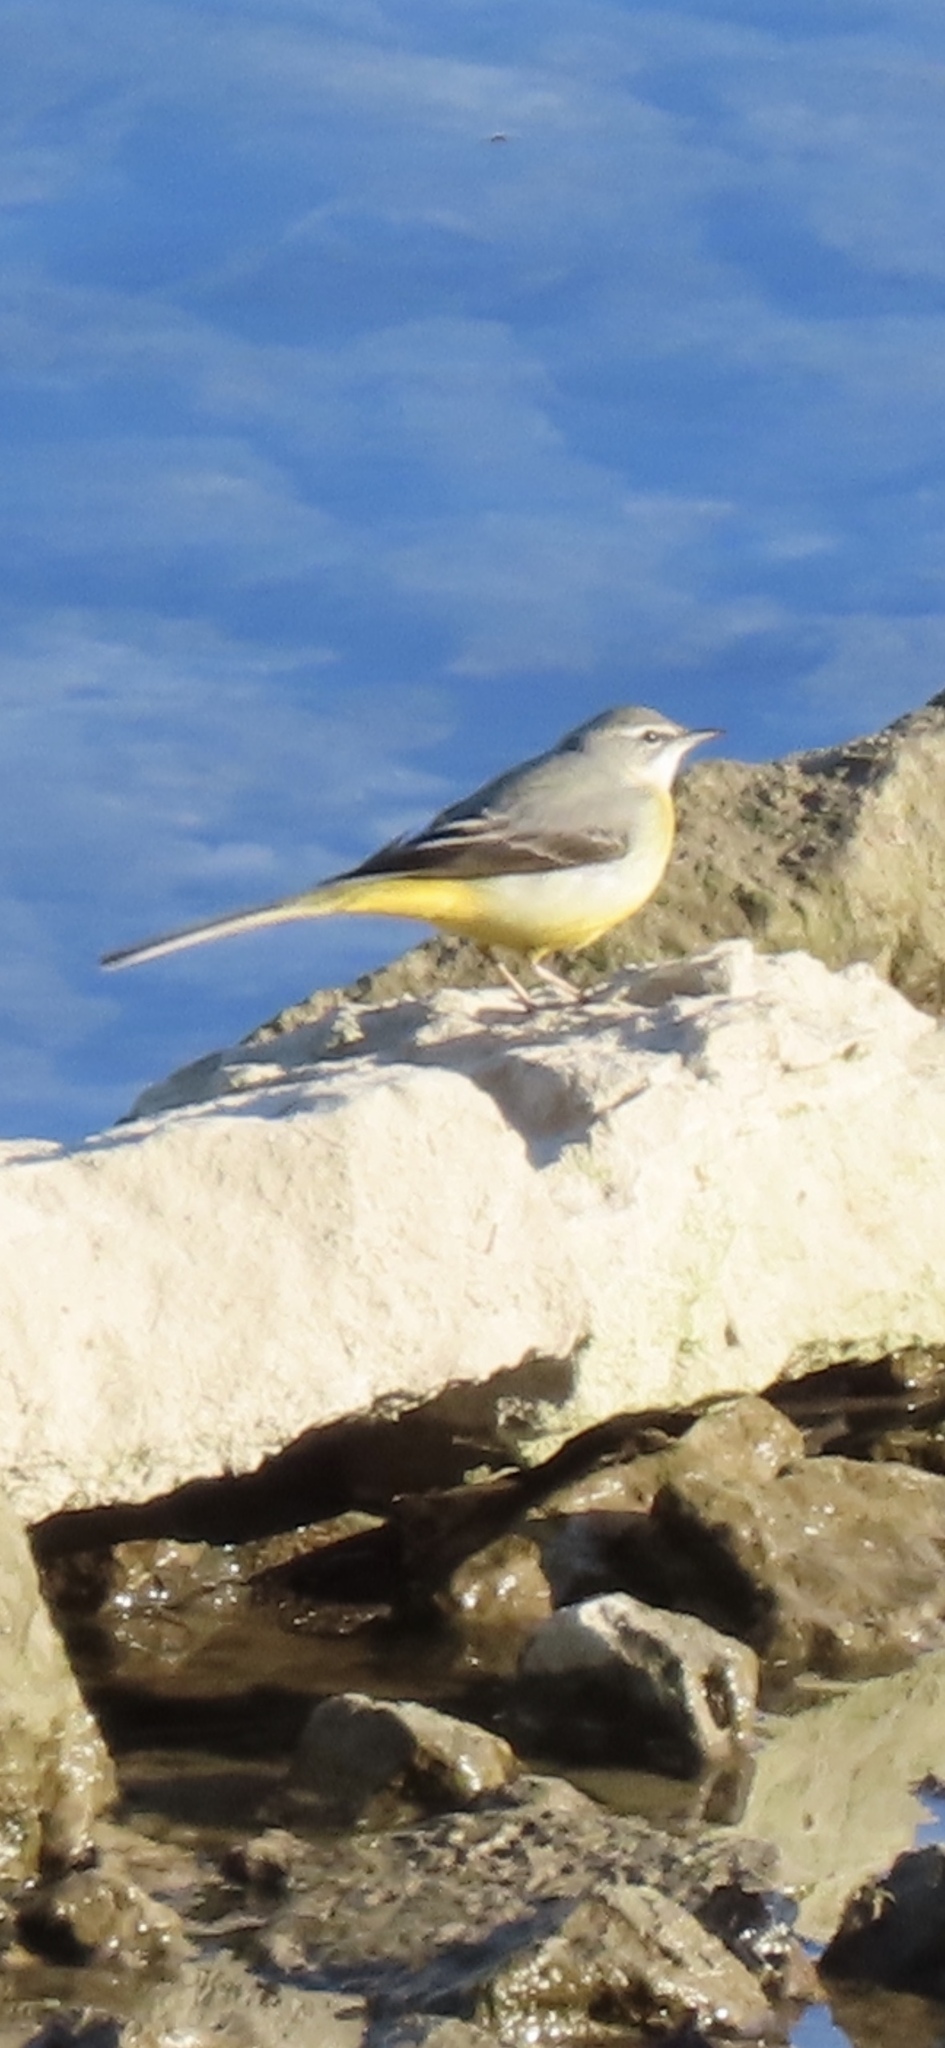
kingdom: Animalia
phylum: Chordata
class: Aves
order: Passeriformes
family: Motacillidae
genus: Motacilla
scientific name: Motacilla cinerea
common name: Grey wagtail
